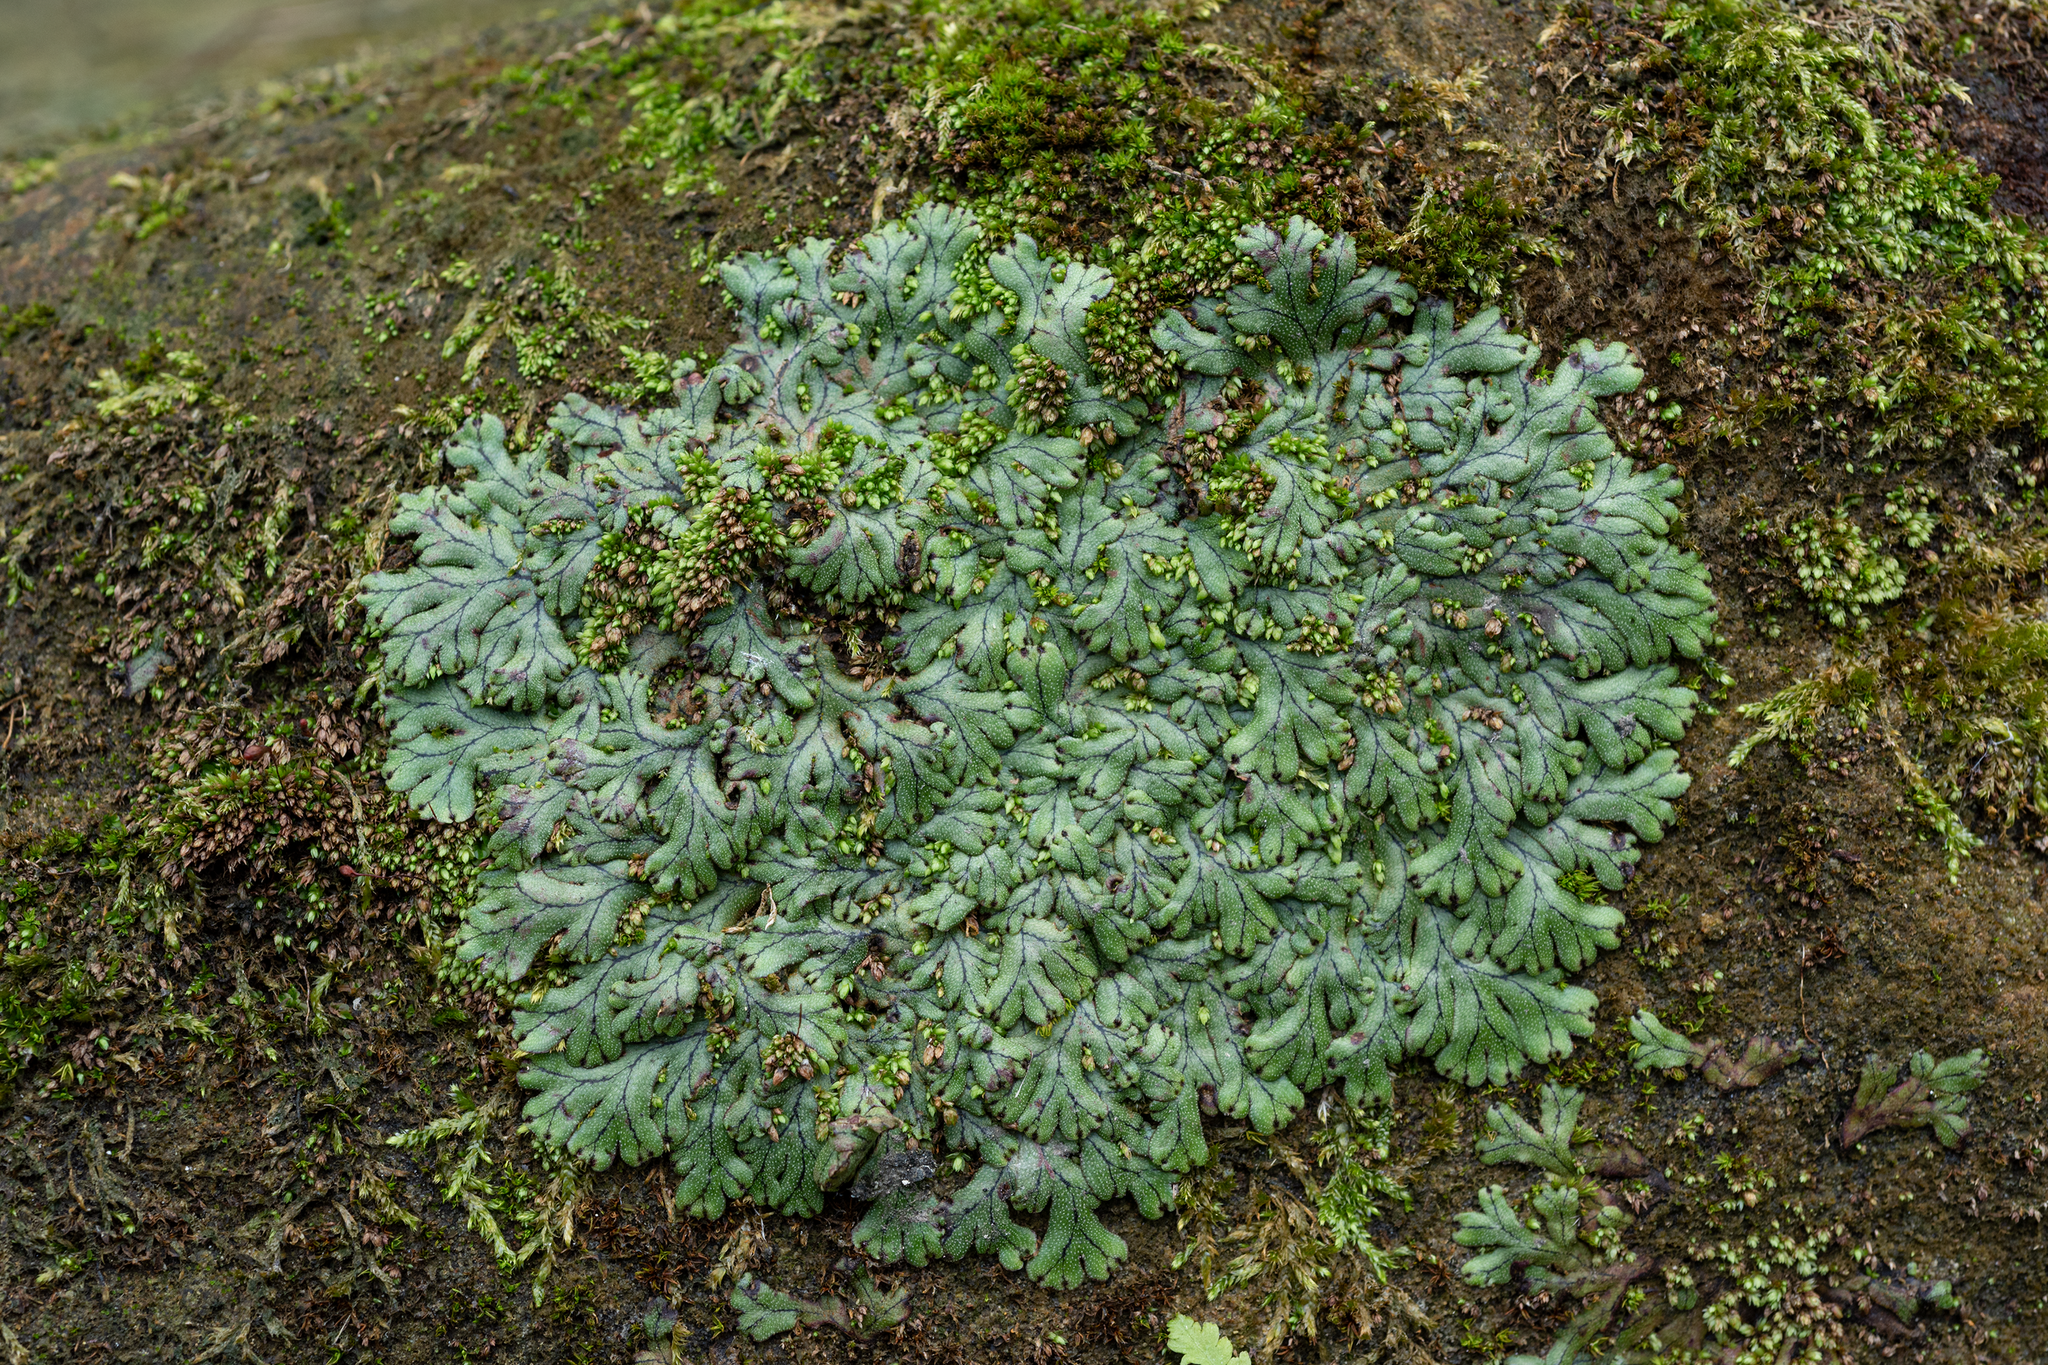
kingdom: Plantae
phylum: Marchantiophyta
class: Marchantiopsida
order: Marchantiales
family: Marchantiaceae
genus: Marchantia
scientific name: Marchantia pinnata
